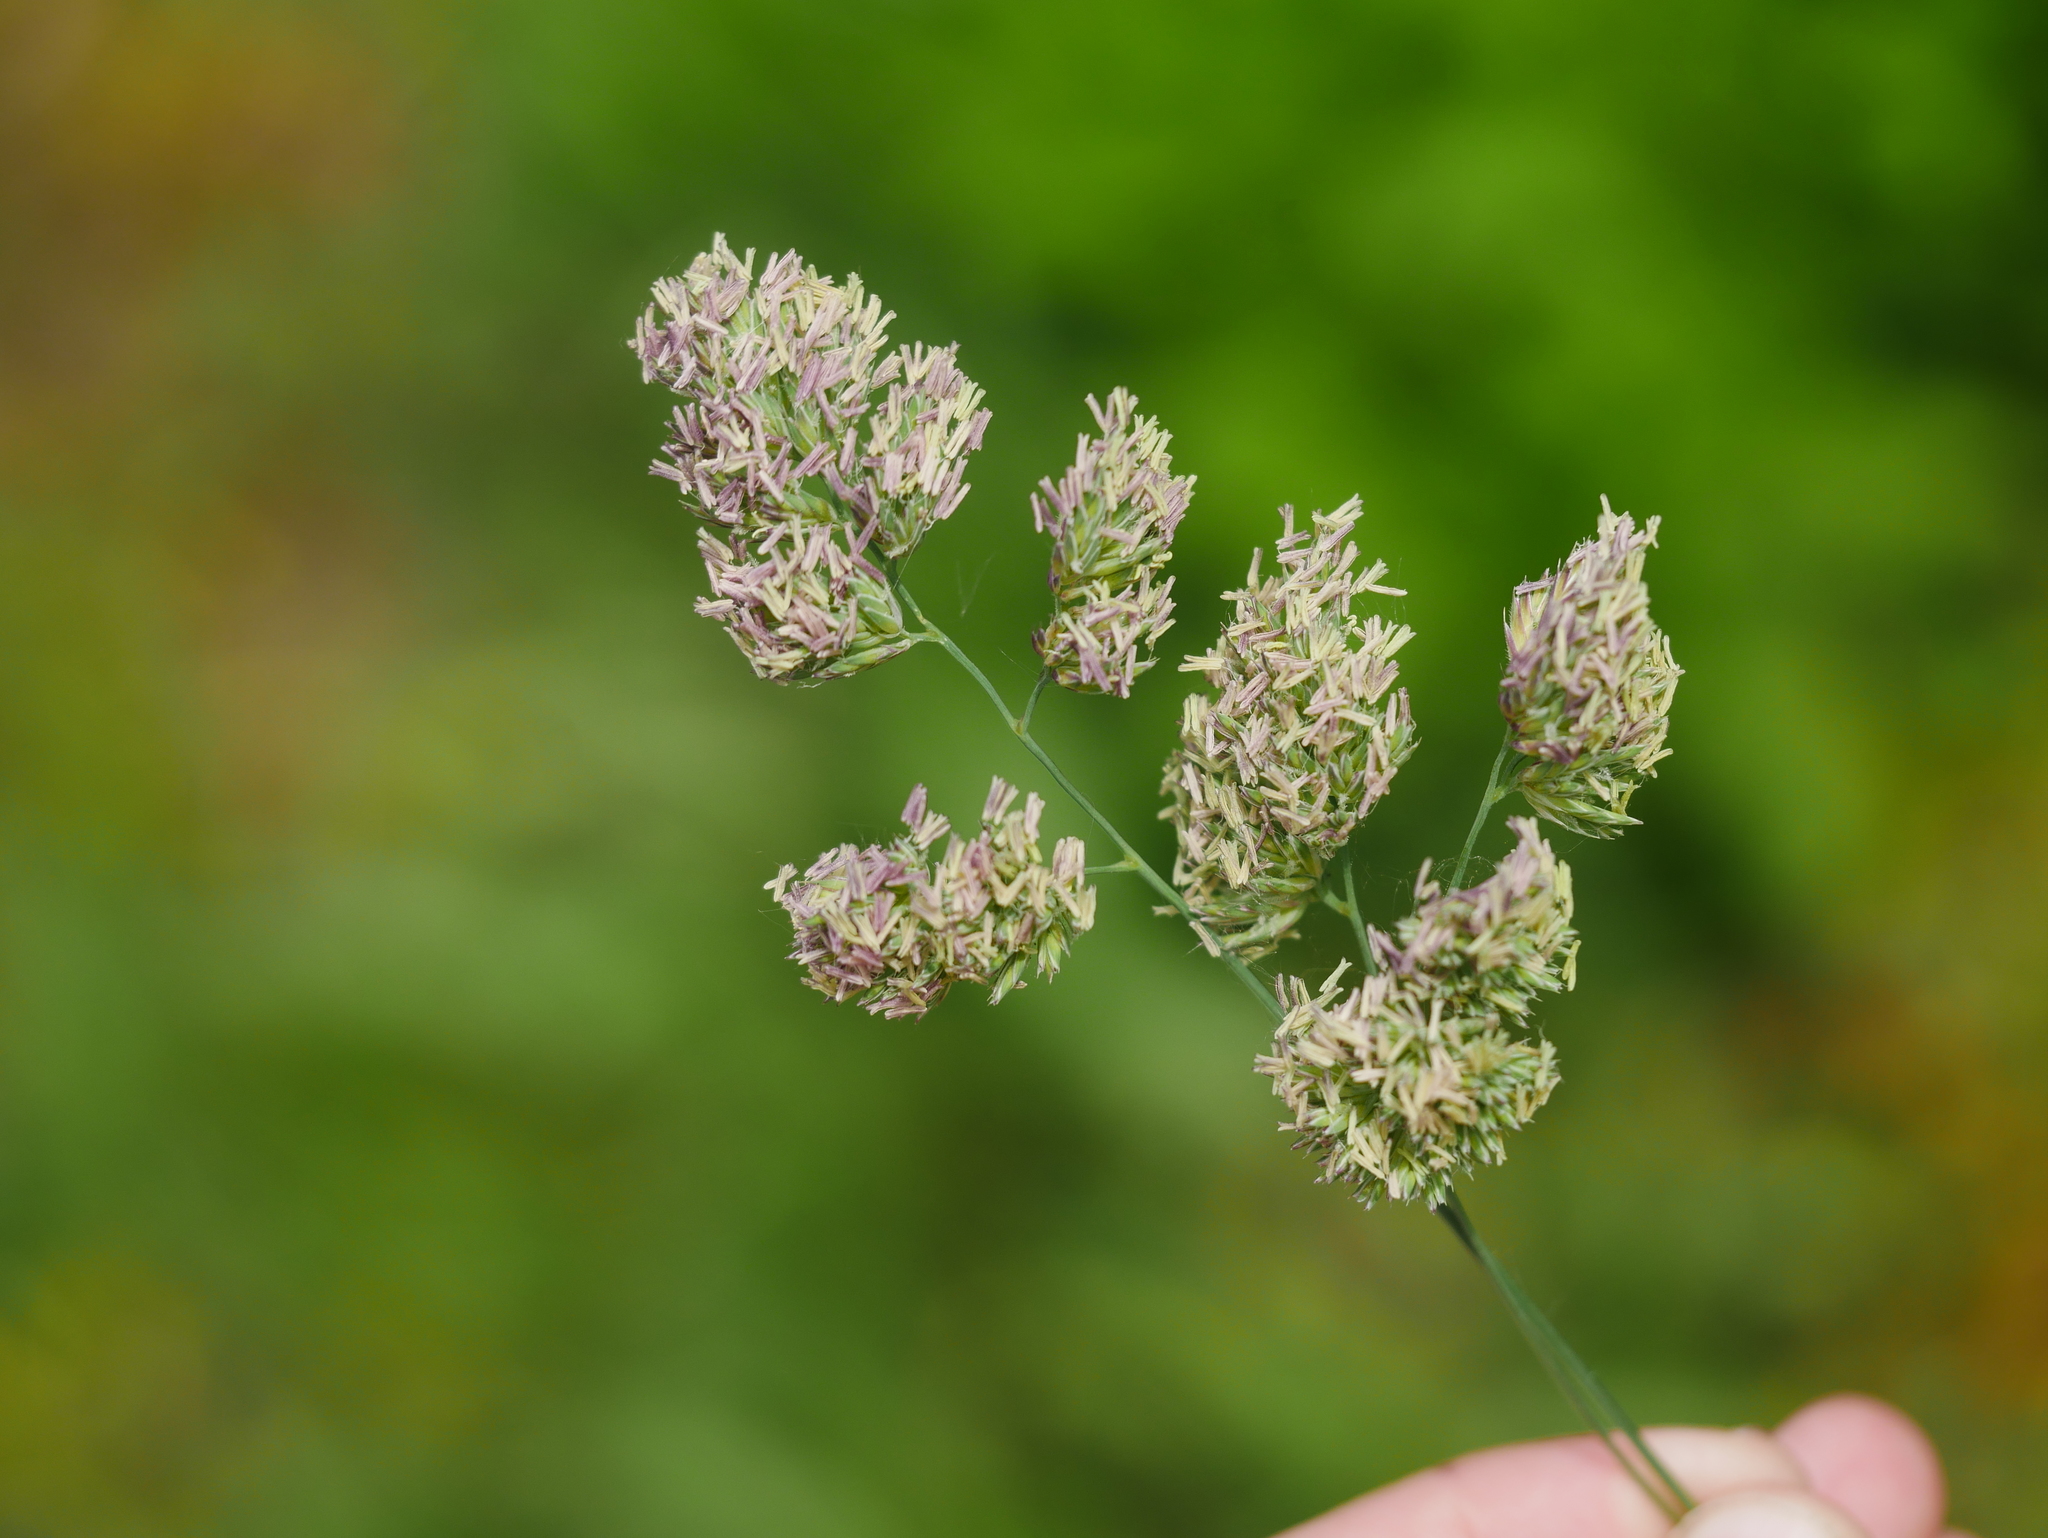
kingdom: Plantae
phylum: Tracheophyta
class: Liliopsida
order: Poales
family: Poaceae
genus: Dactylis
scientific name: Dactylis glomerata
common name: Orchardgrass
